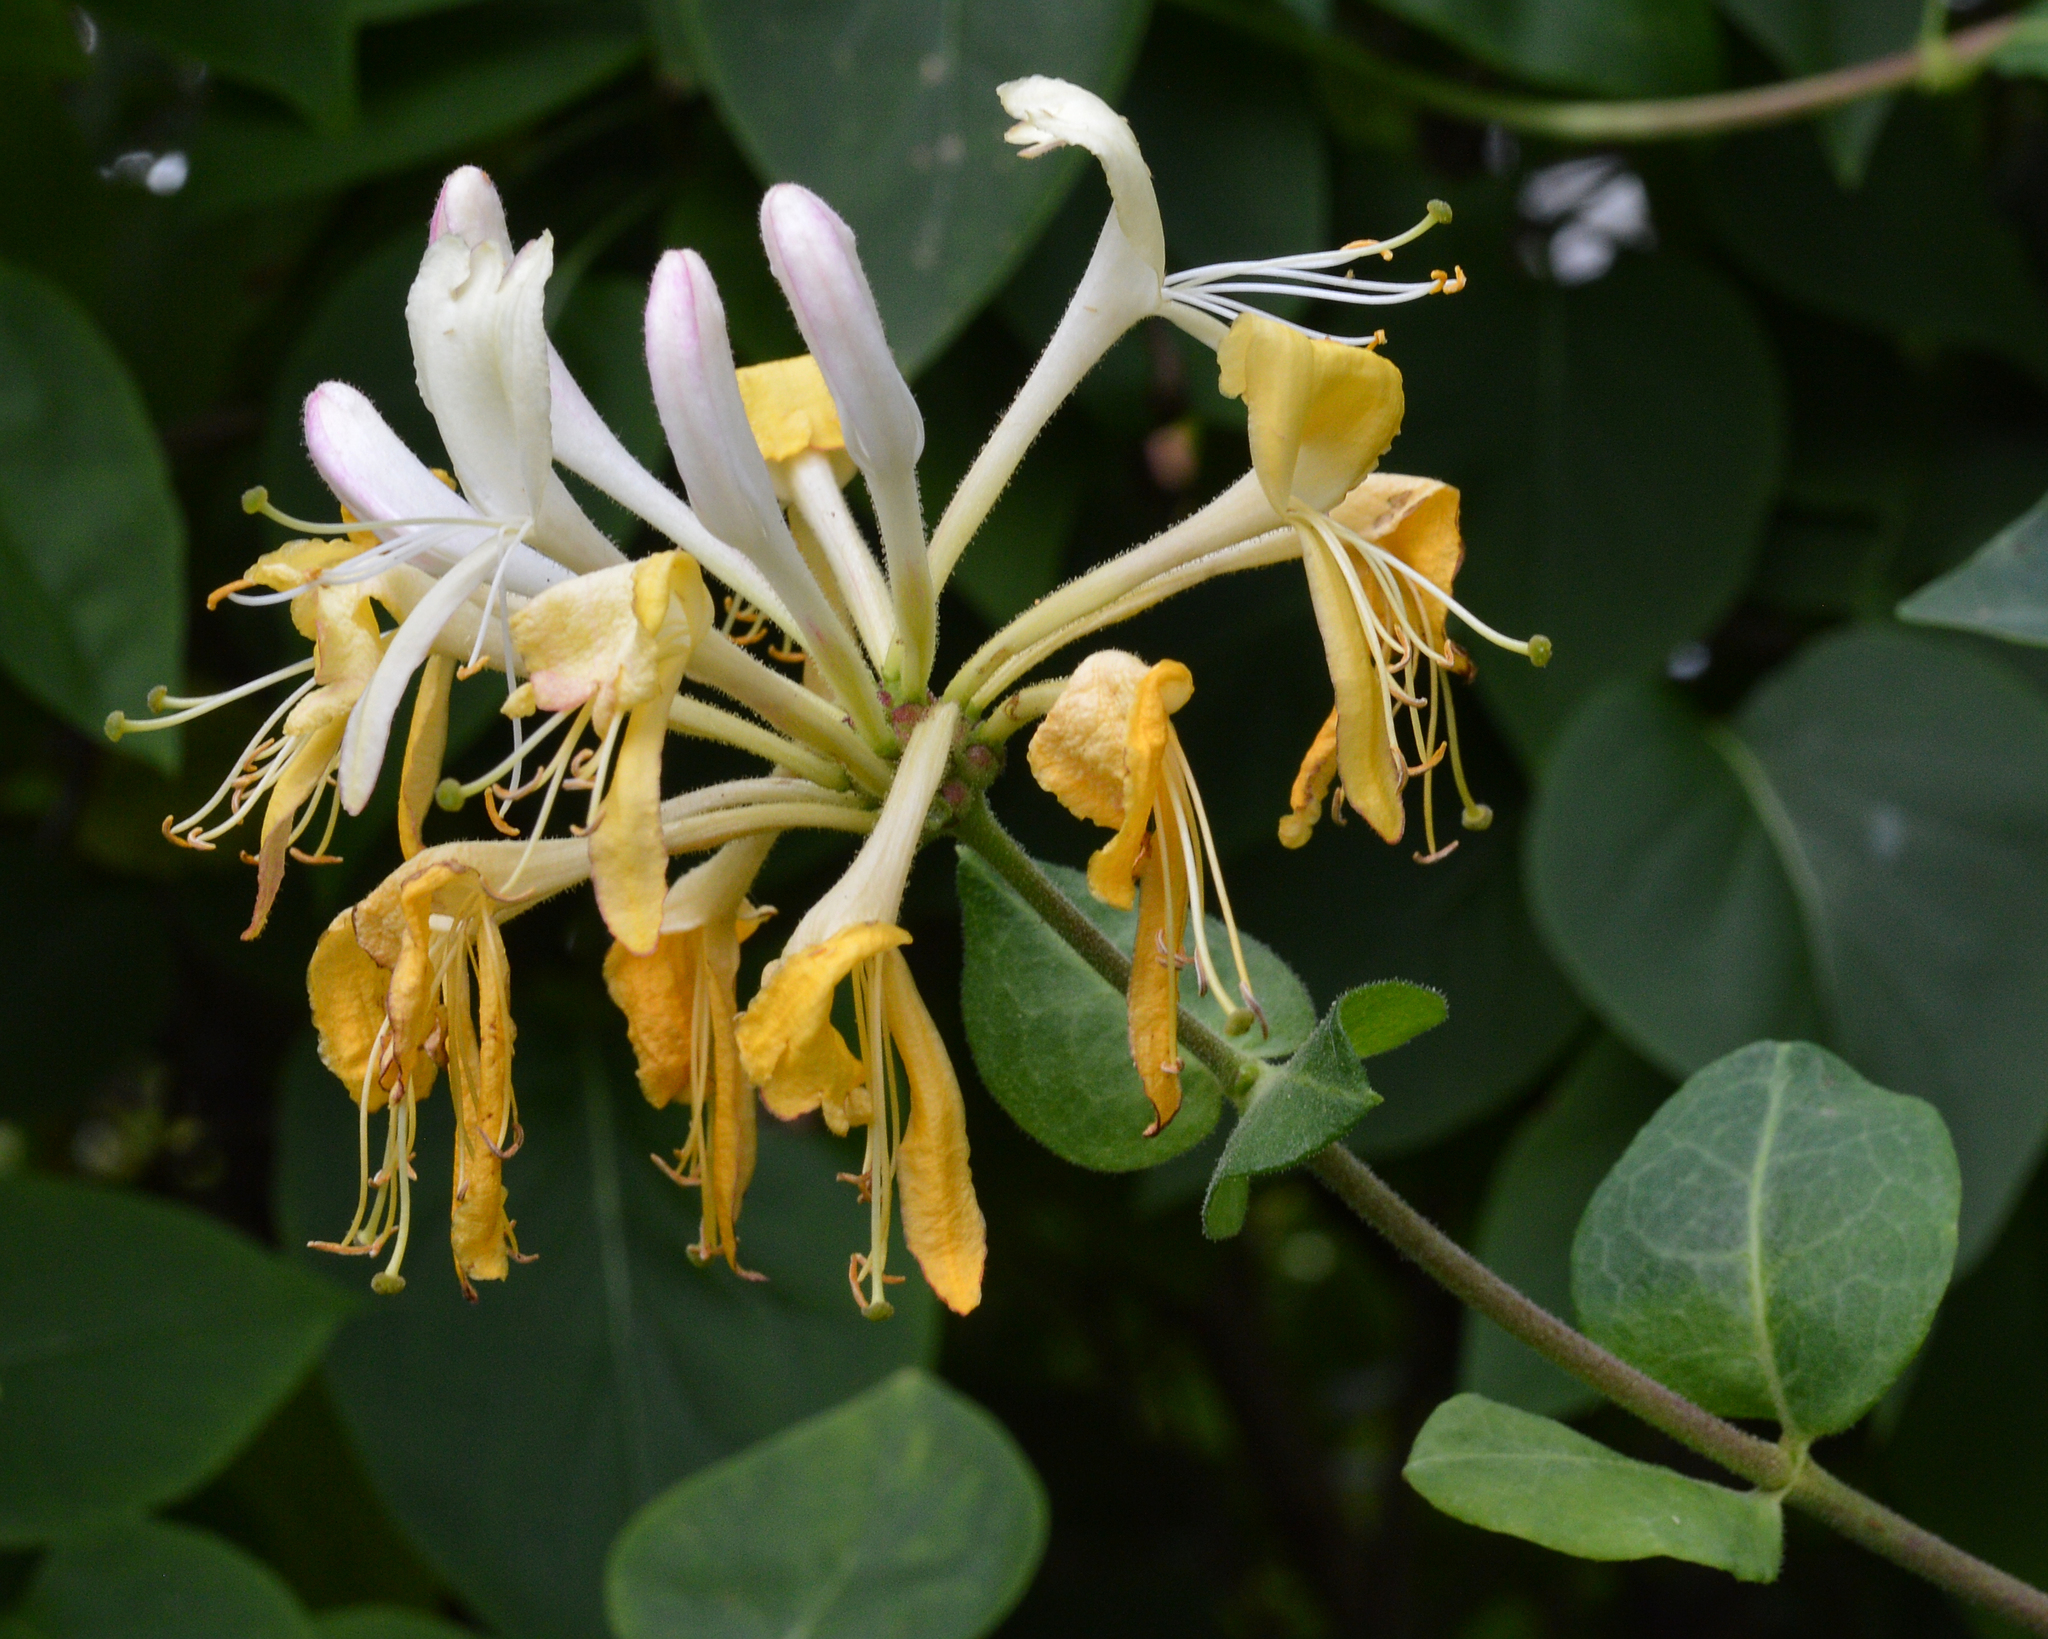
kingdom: Plantae
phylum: Tracheophyta
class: Magnoliopsida
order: Dipsacales
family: Caprifoliaceae
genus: Lonicera
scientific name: Lonicera periclymenum
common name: European honeysuckle
